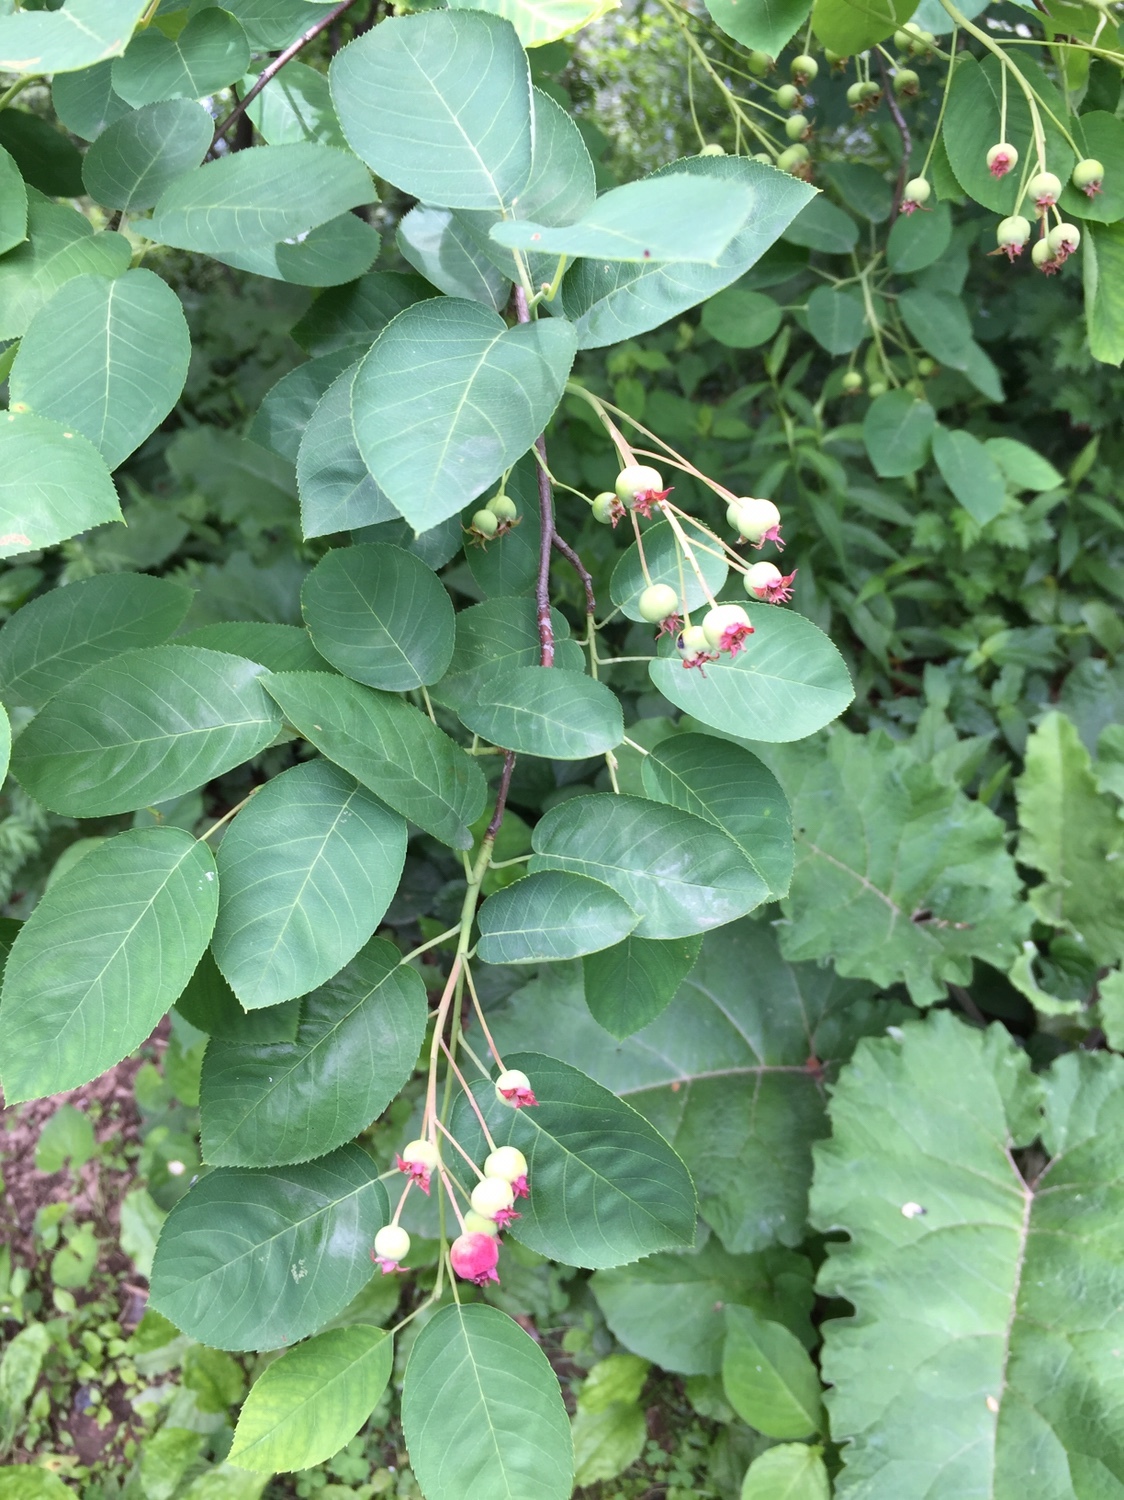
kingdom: Plantae
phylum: Tracheophyta
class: Magnoliopsida
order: Rosales
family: Rosaceae
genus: Amelanchier
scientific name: Amelanchier arborea
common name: Downy serviceberry
